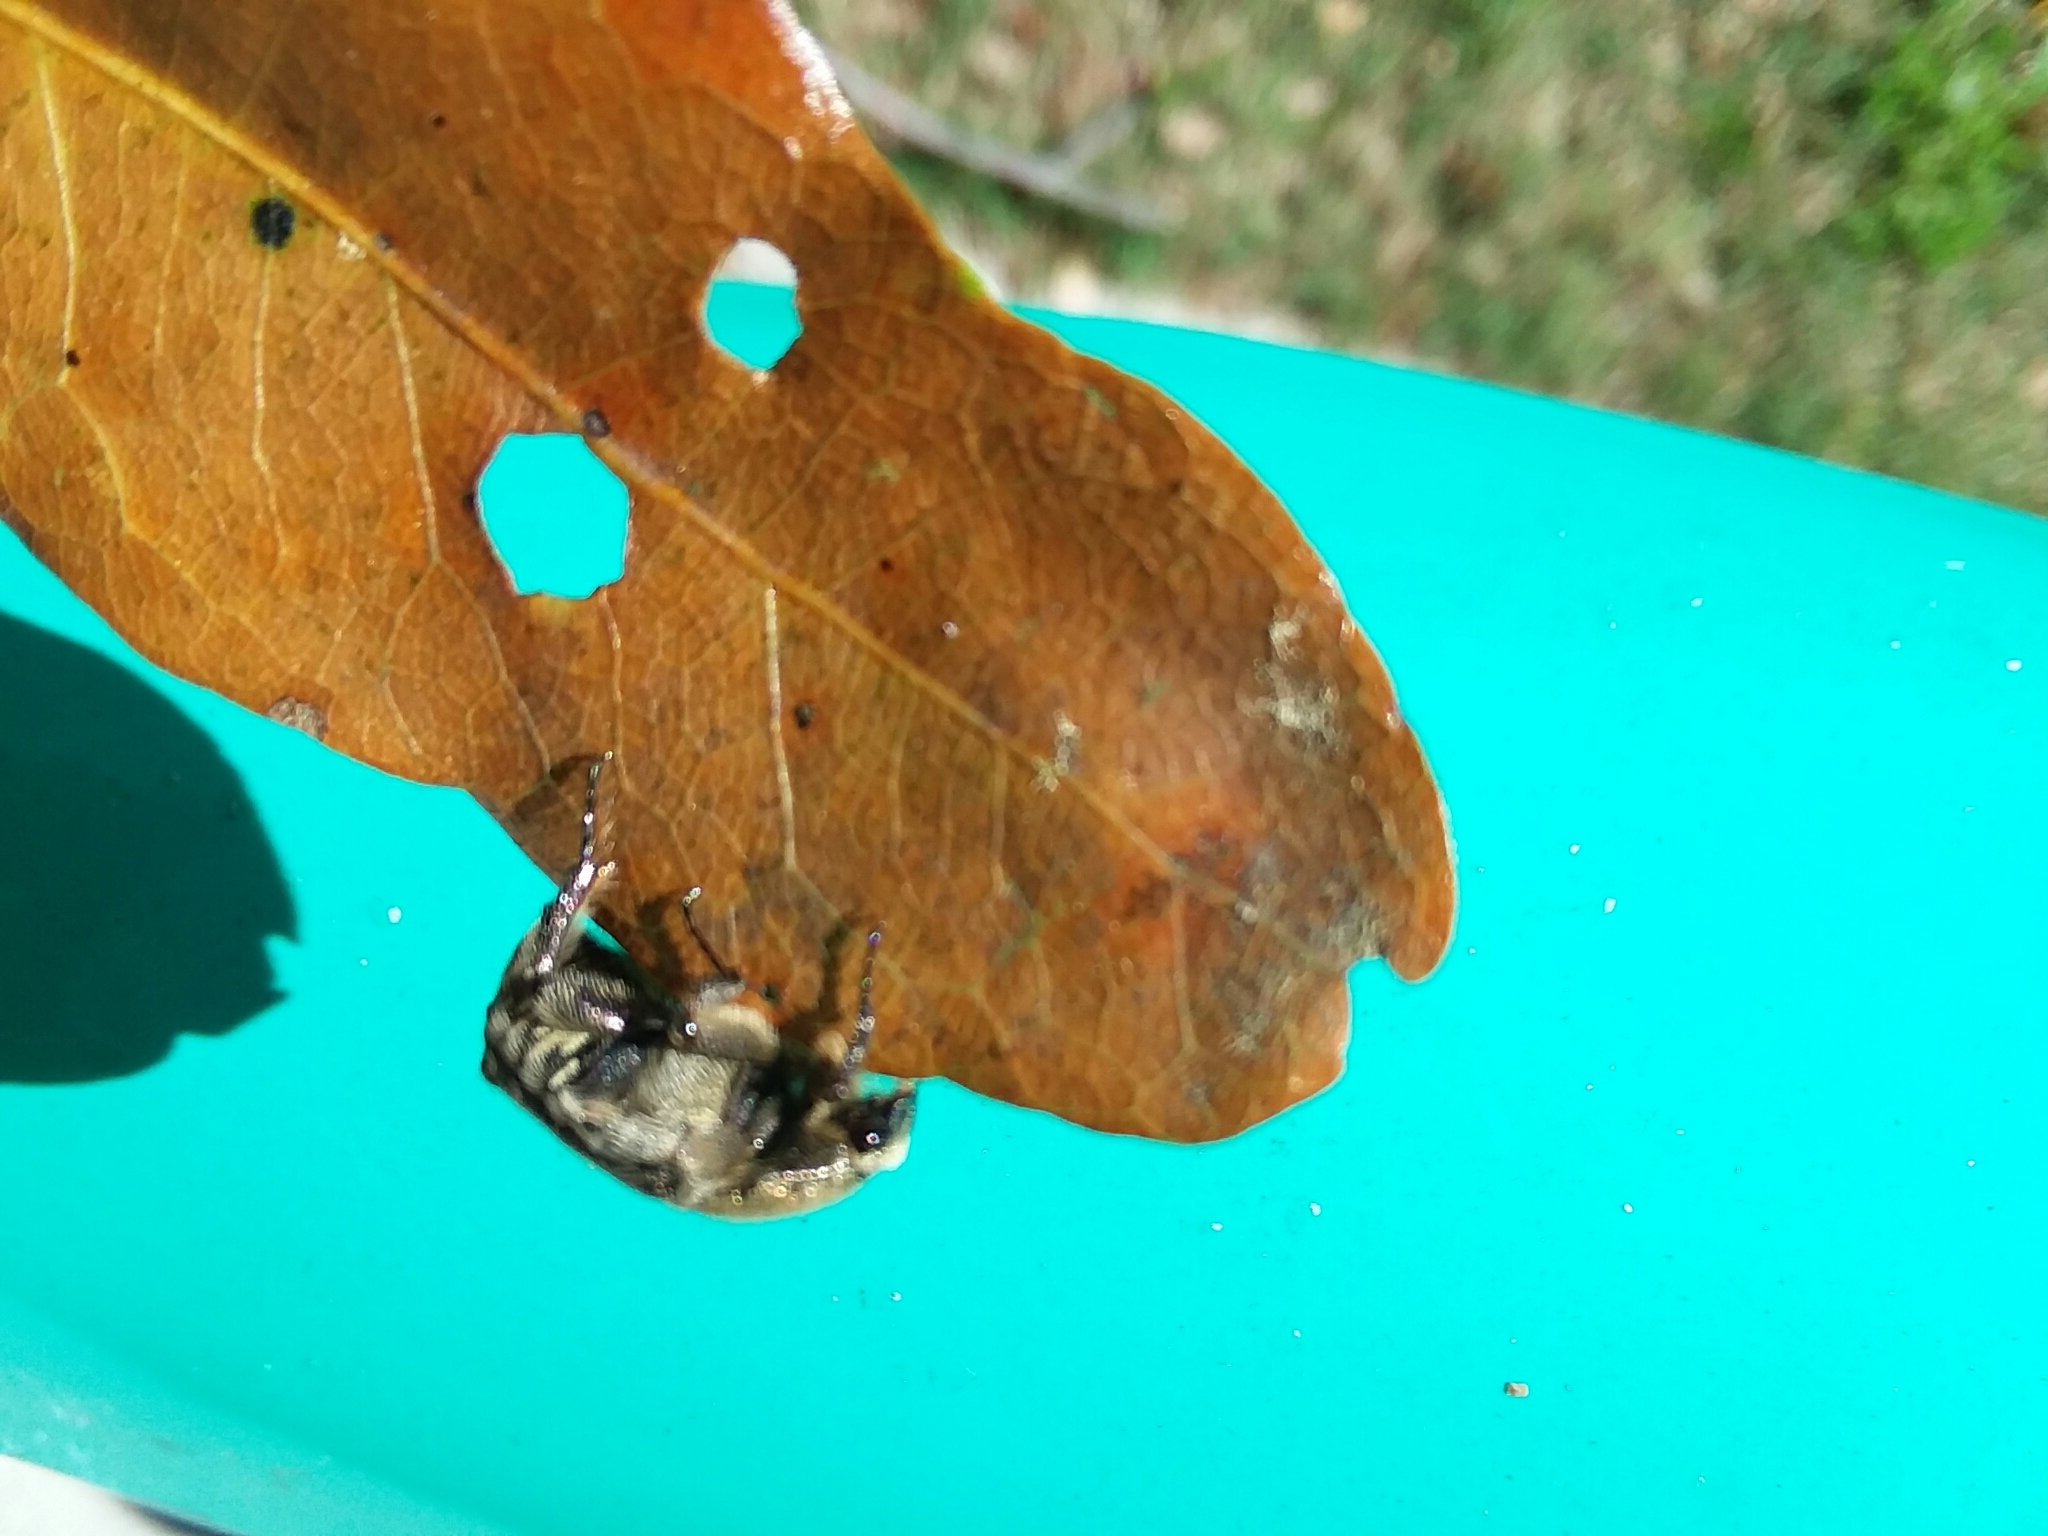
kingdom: Animalia
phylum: Arthropoda
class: Insecta
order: Coleoptera
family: Scarabaeidae
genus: Euphoria
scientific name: Euphoria sepulcralis
